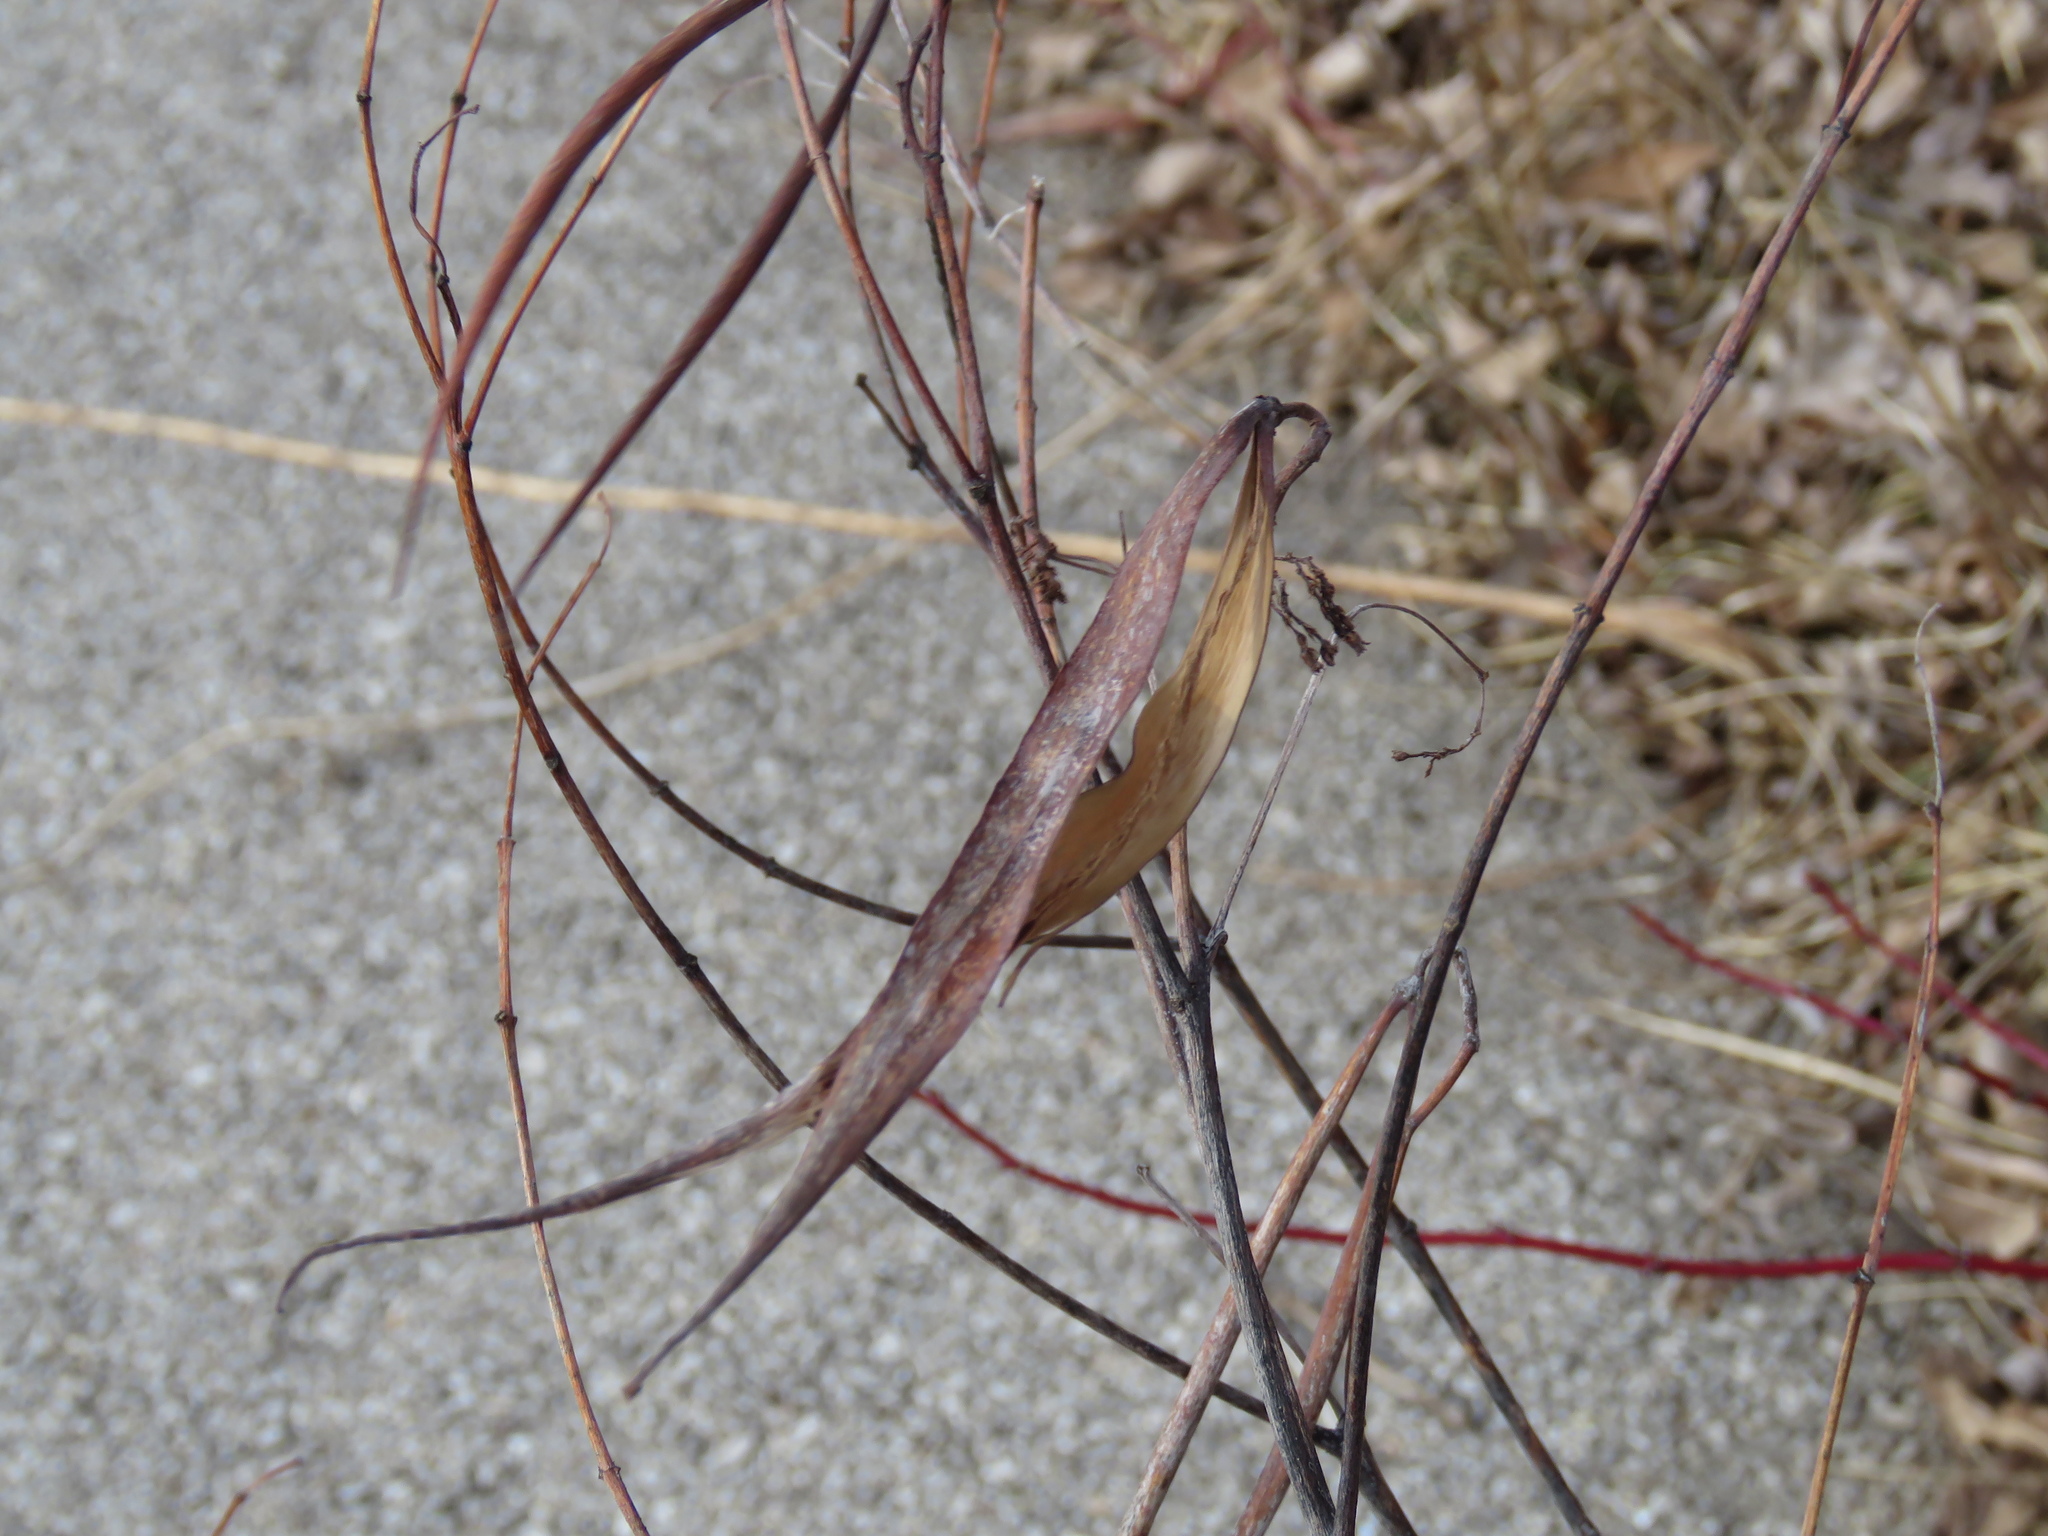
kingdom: Plantae
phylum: Tracheophyta
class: Magnoliopsida
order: Gentianales
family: Apocynaceae
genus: Apocynum
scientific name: Apocynum cannabinum
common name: Hemp dogbane
